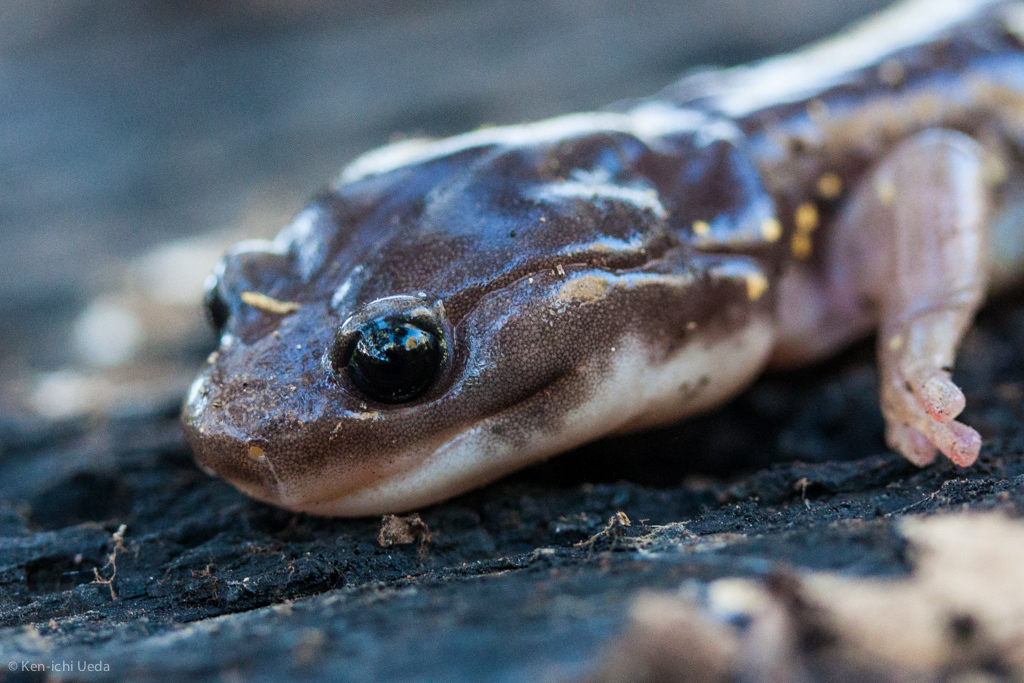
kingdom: Animalia
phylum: Chordata
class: Amphibia
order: Caudata
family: Plethodontidae
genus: Aneides
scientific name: Aneides lugubris
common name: Arboreal salamander
